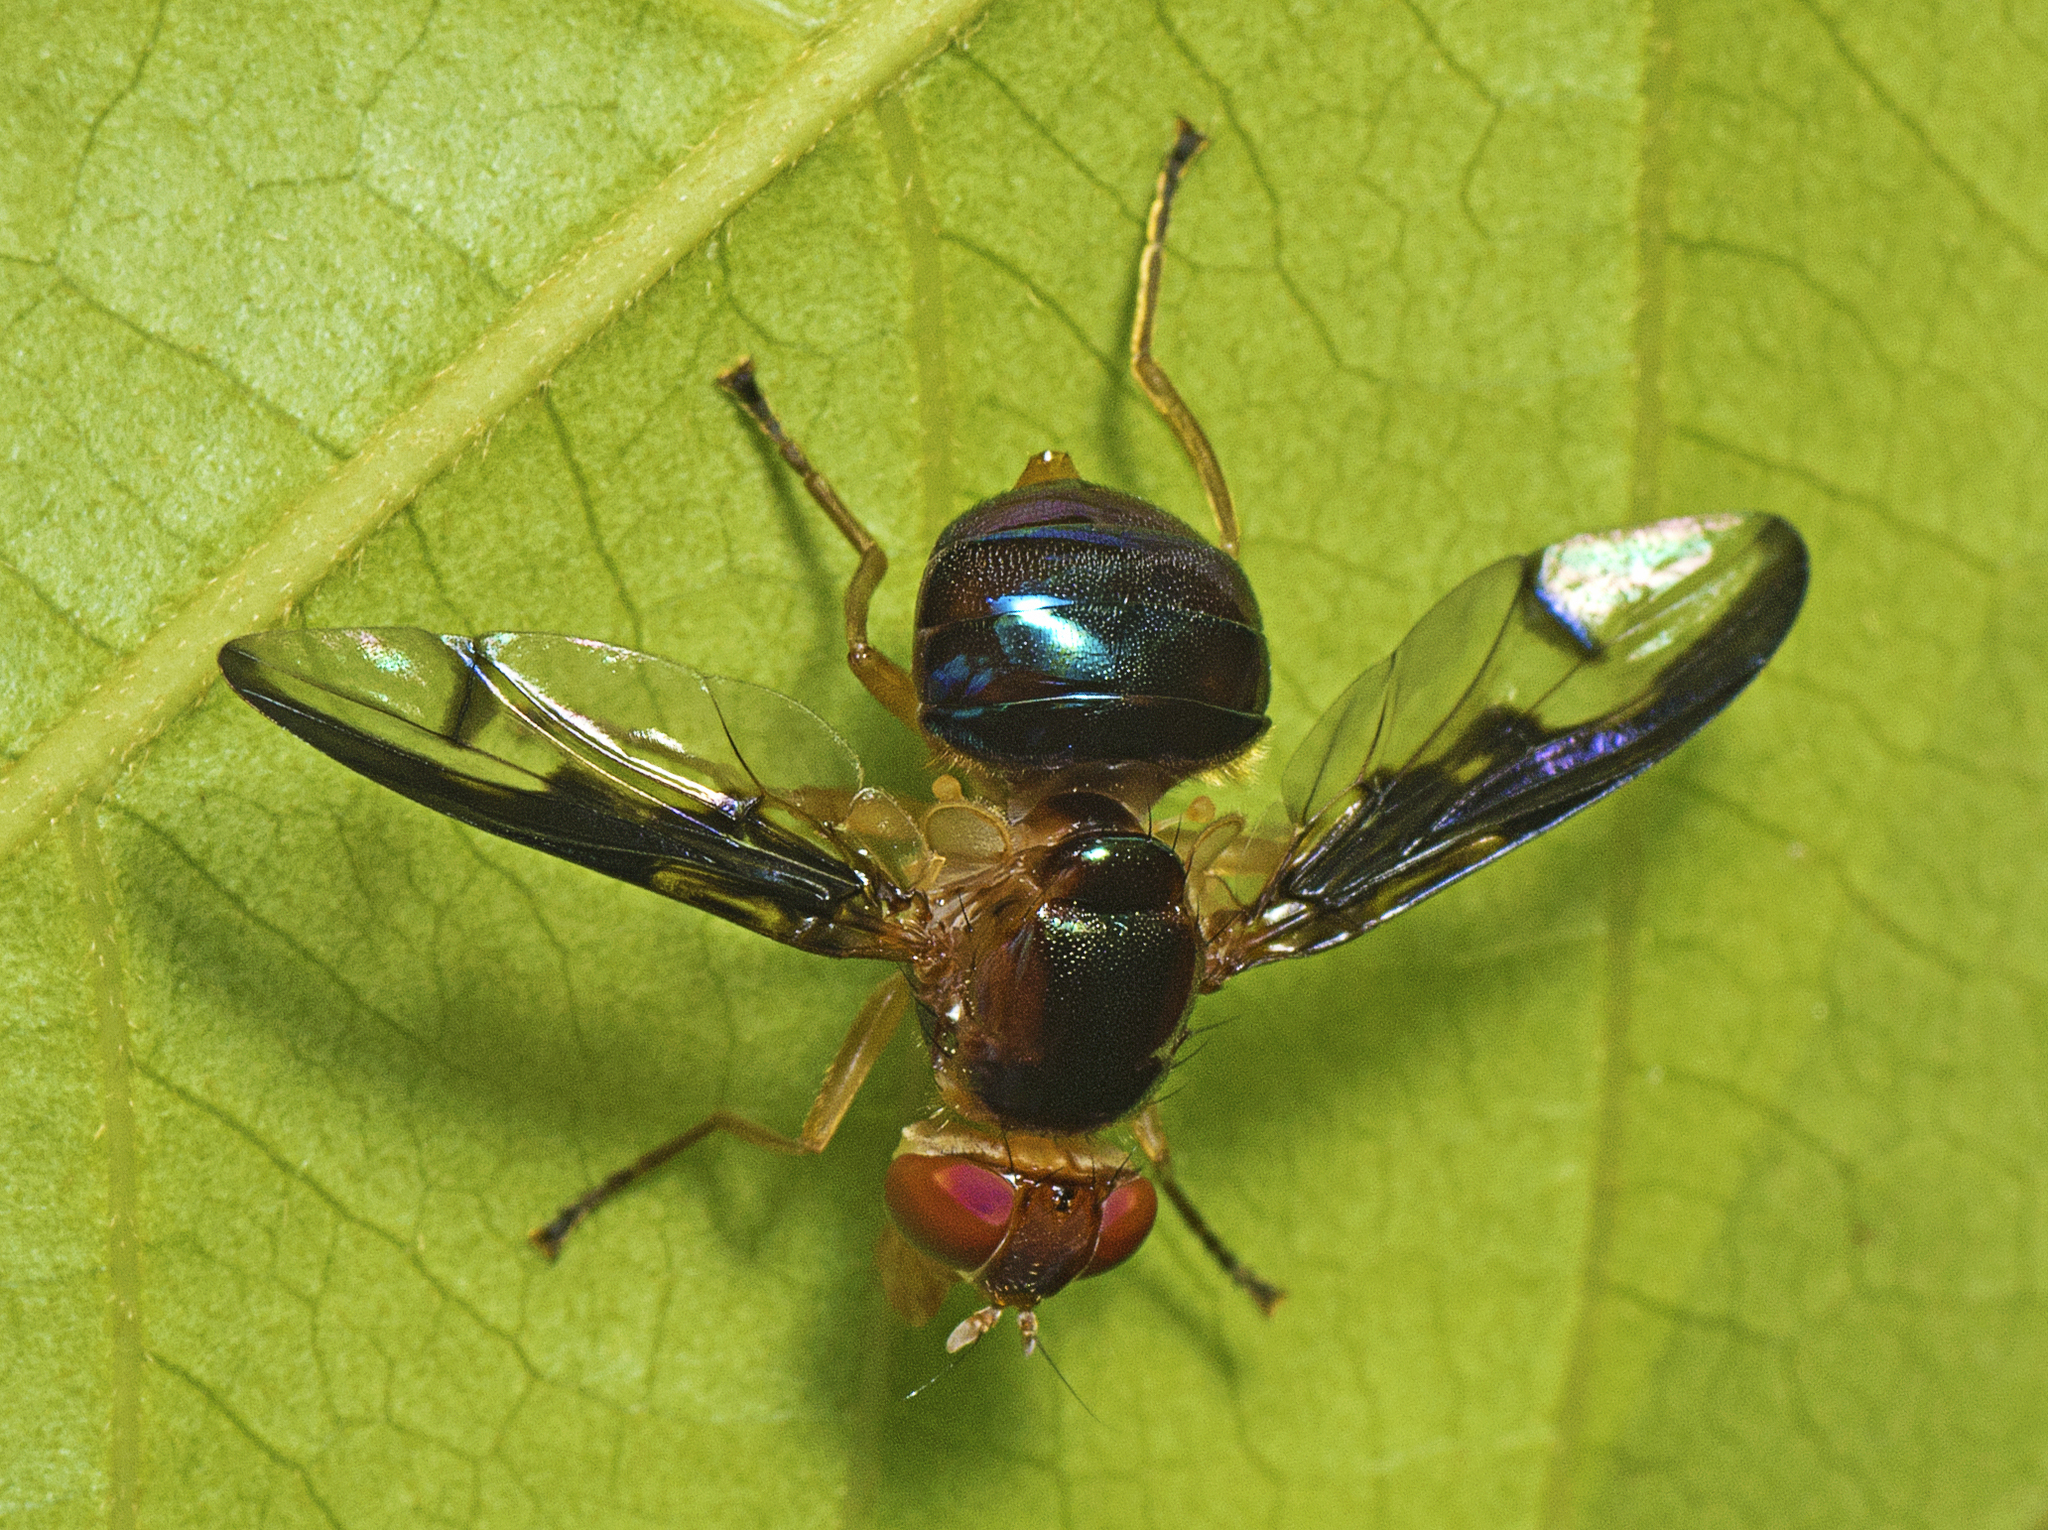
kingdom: Animalia
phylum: Arthropoda
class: Insecta
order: Diptera
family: Platystomatidae
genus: Lamprogaster
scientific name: Lamprogaster stenoparia
